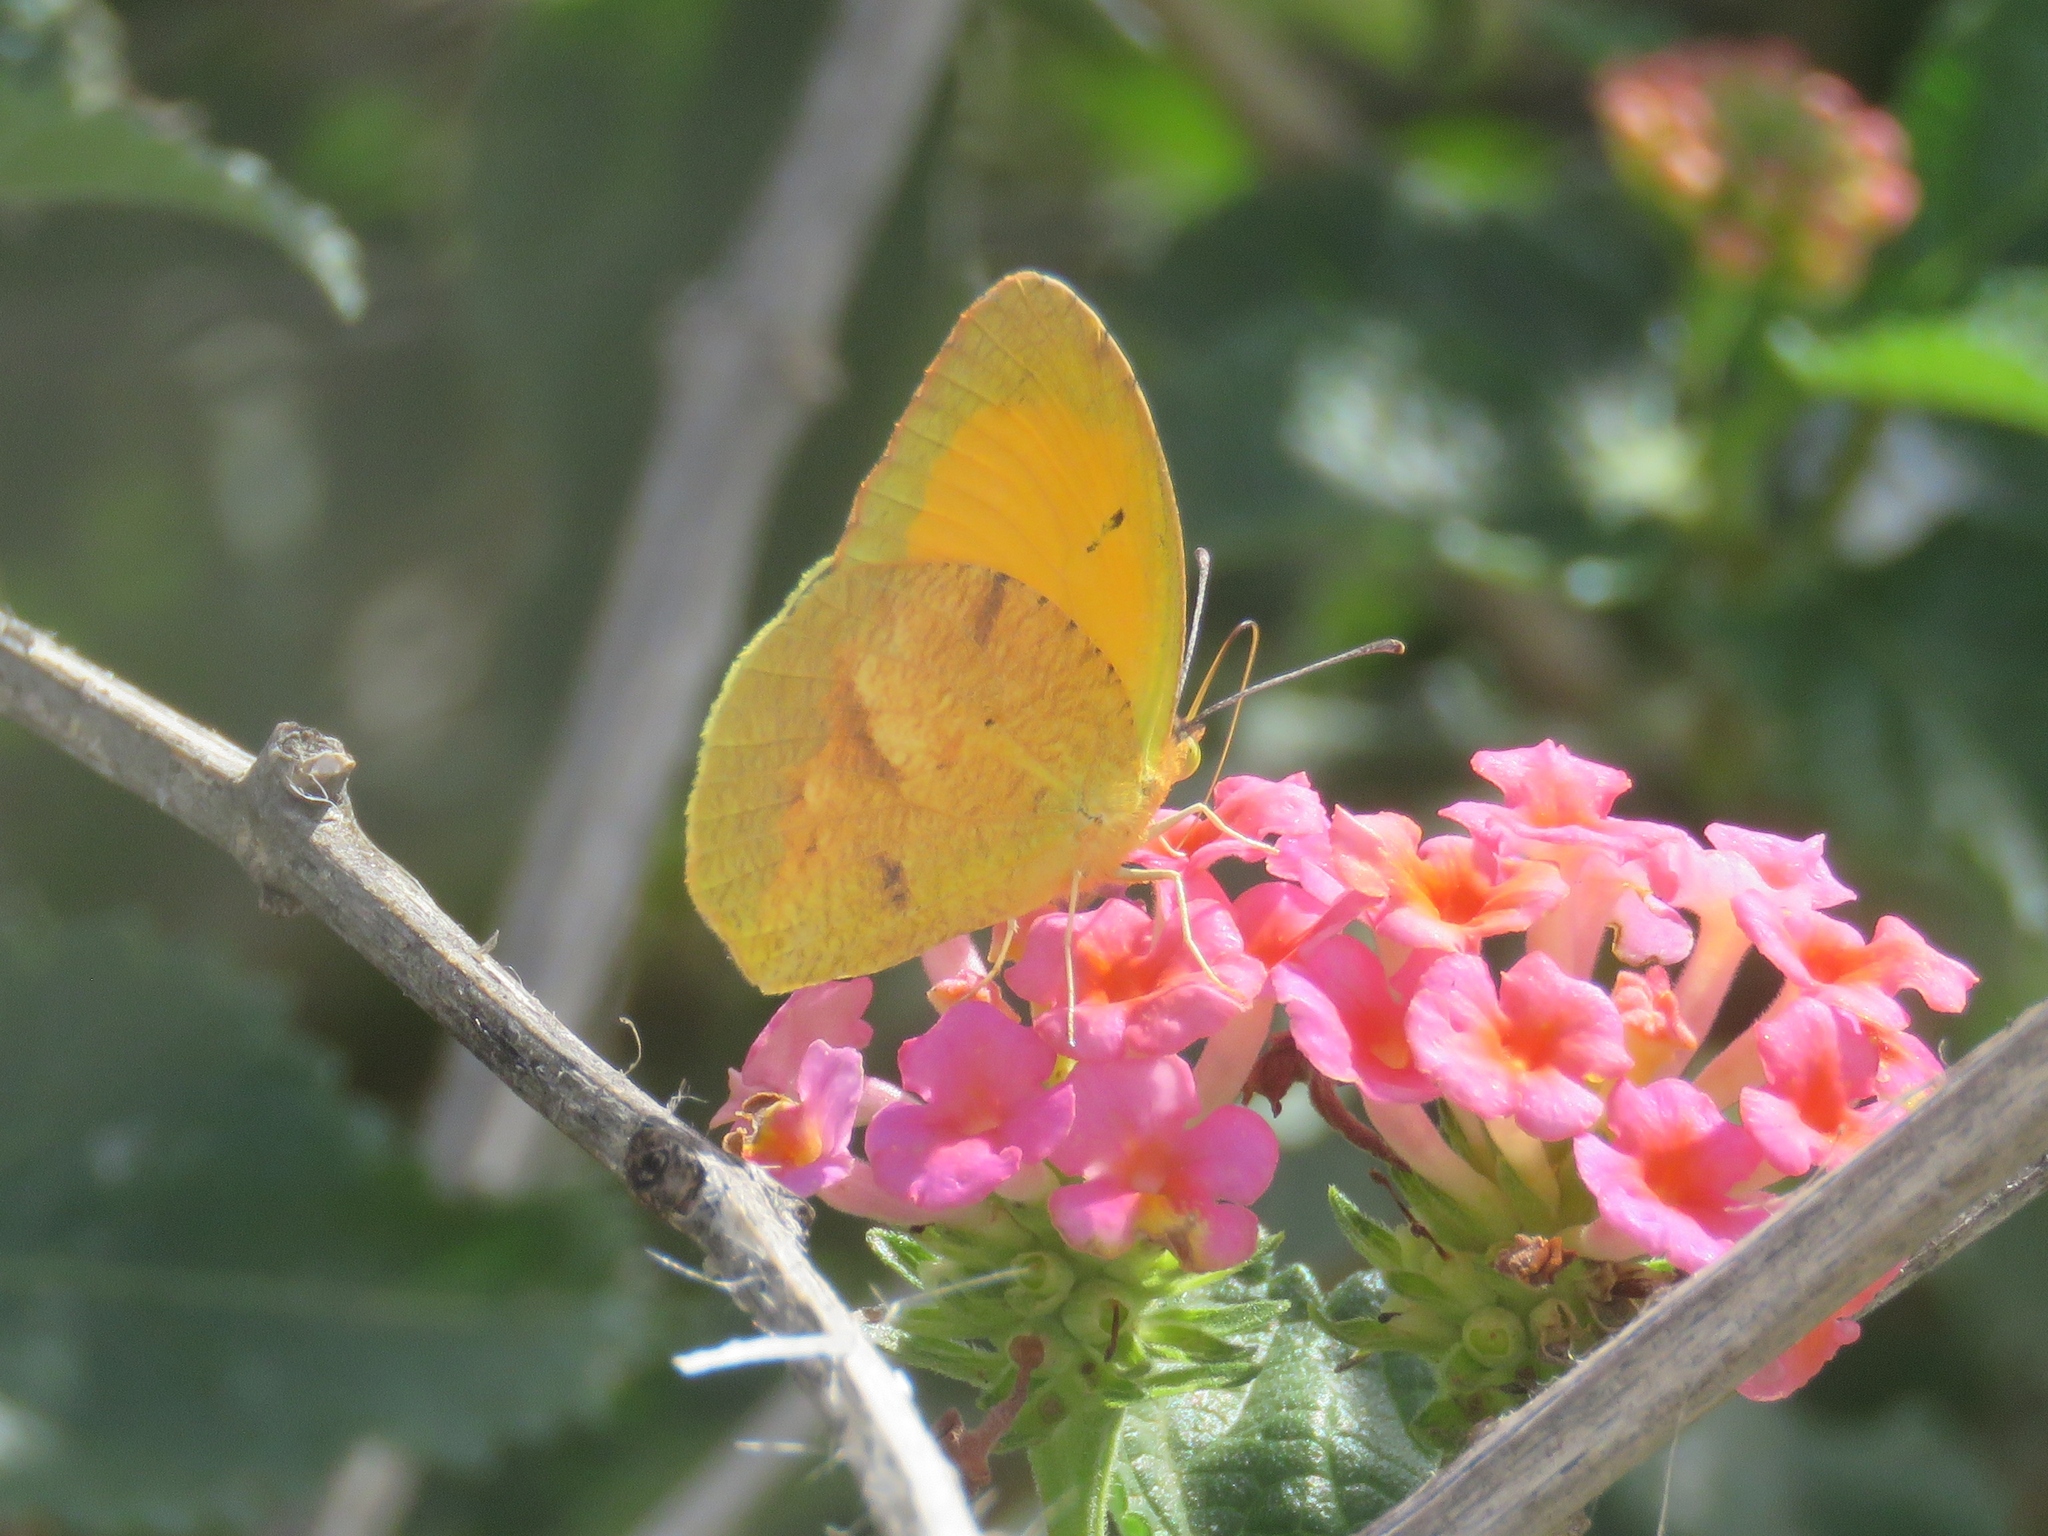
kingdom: Animalia
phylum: Arthropoda
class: Insecta
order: Lepidoptera
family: Pieridae
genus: Abaeis
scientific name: Abaeis nicippe
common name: Sleepy orange
